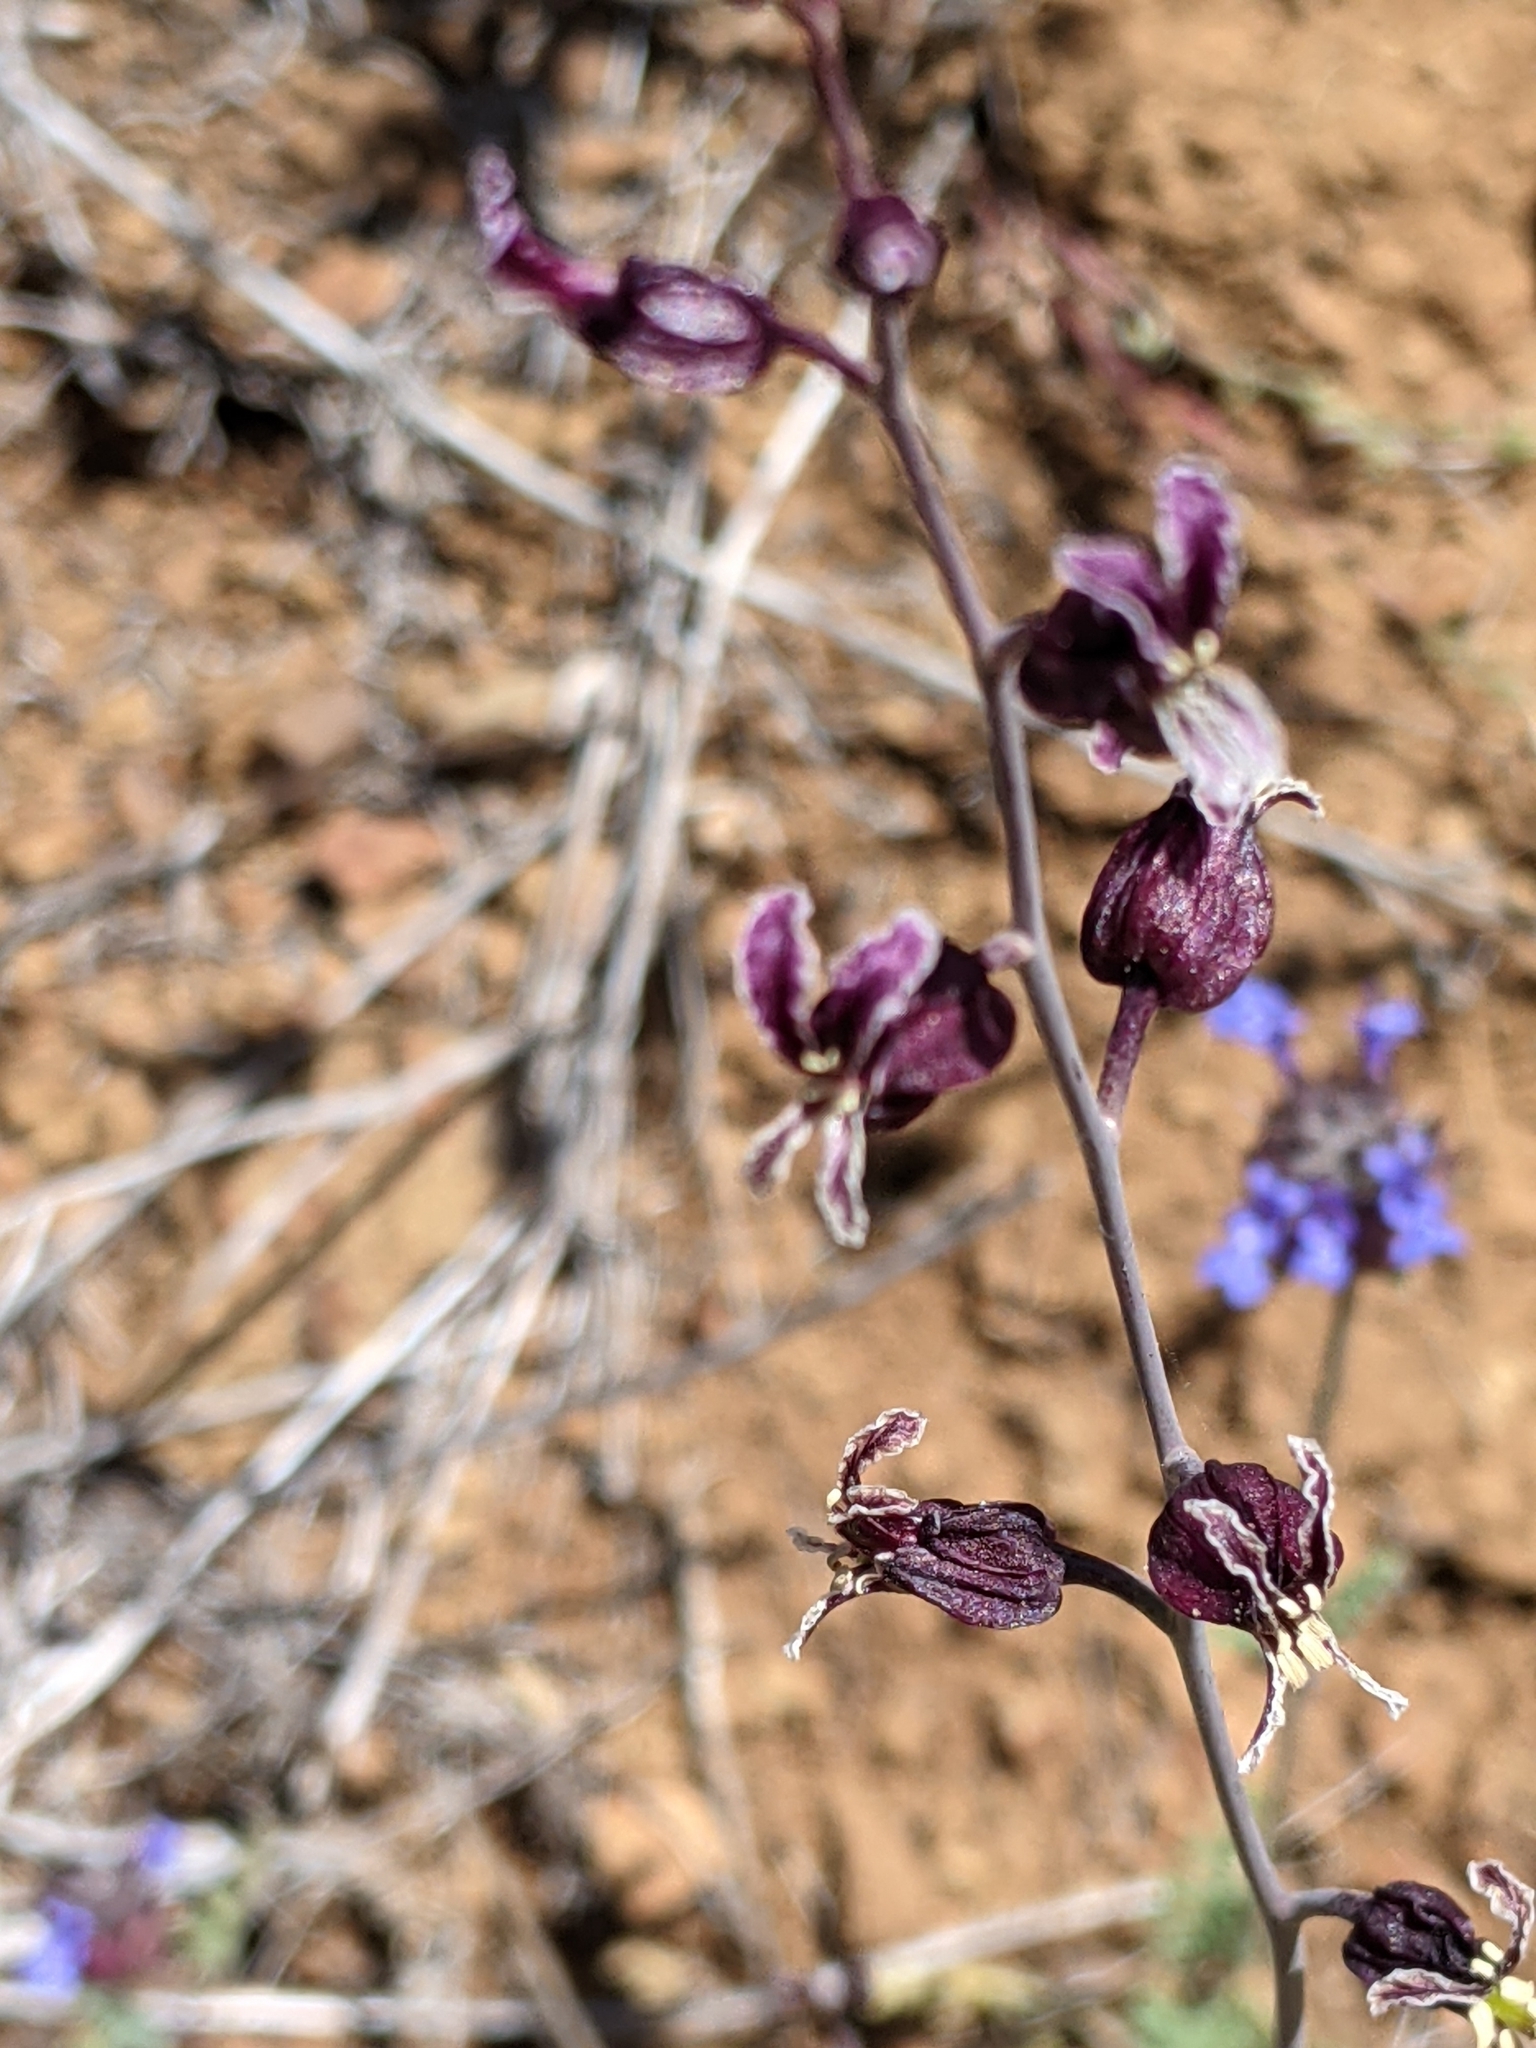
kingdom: Plantae
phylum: Tracheophyta
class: Magnoliopsida
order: Brassicales
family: Brassicaceae
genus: Streptanthus
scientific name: Streptanthus glandulosus
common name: Jewel-flower
